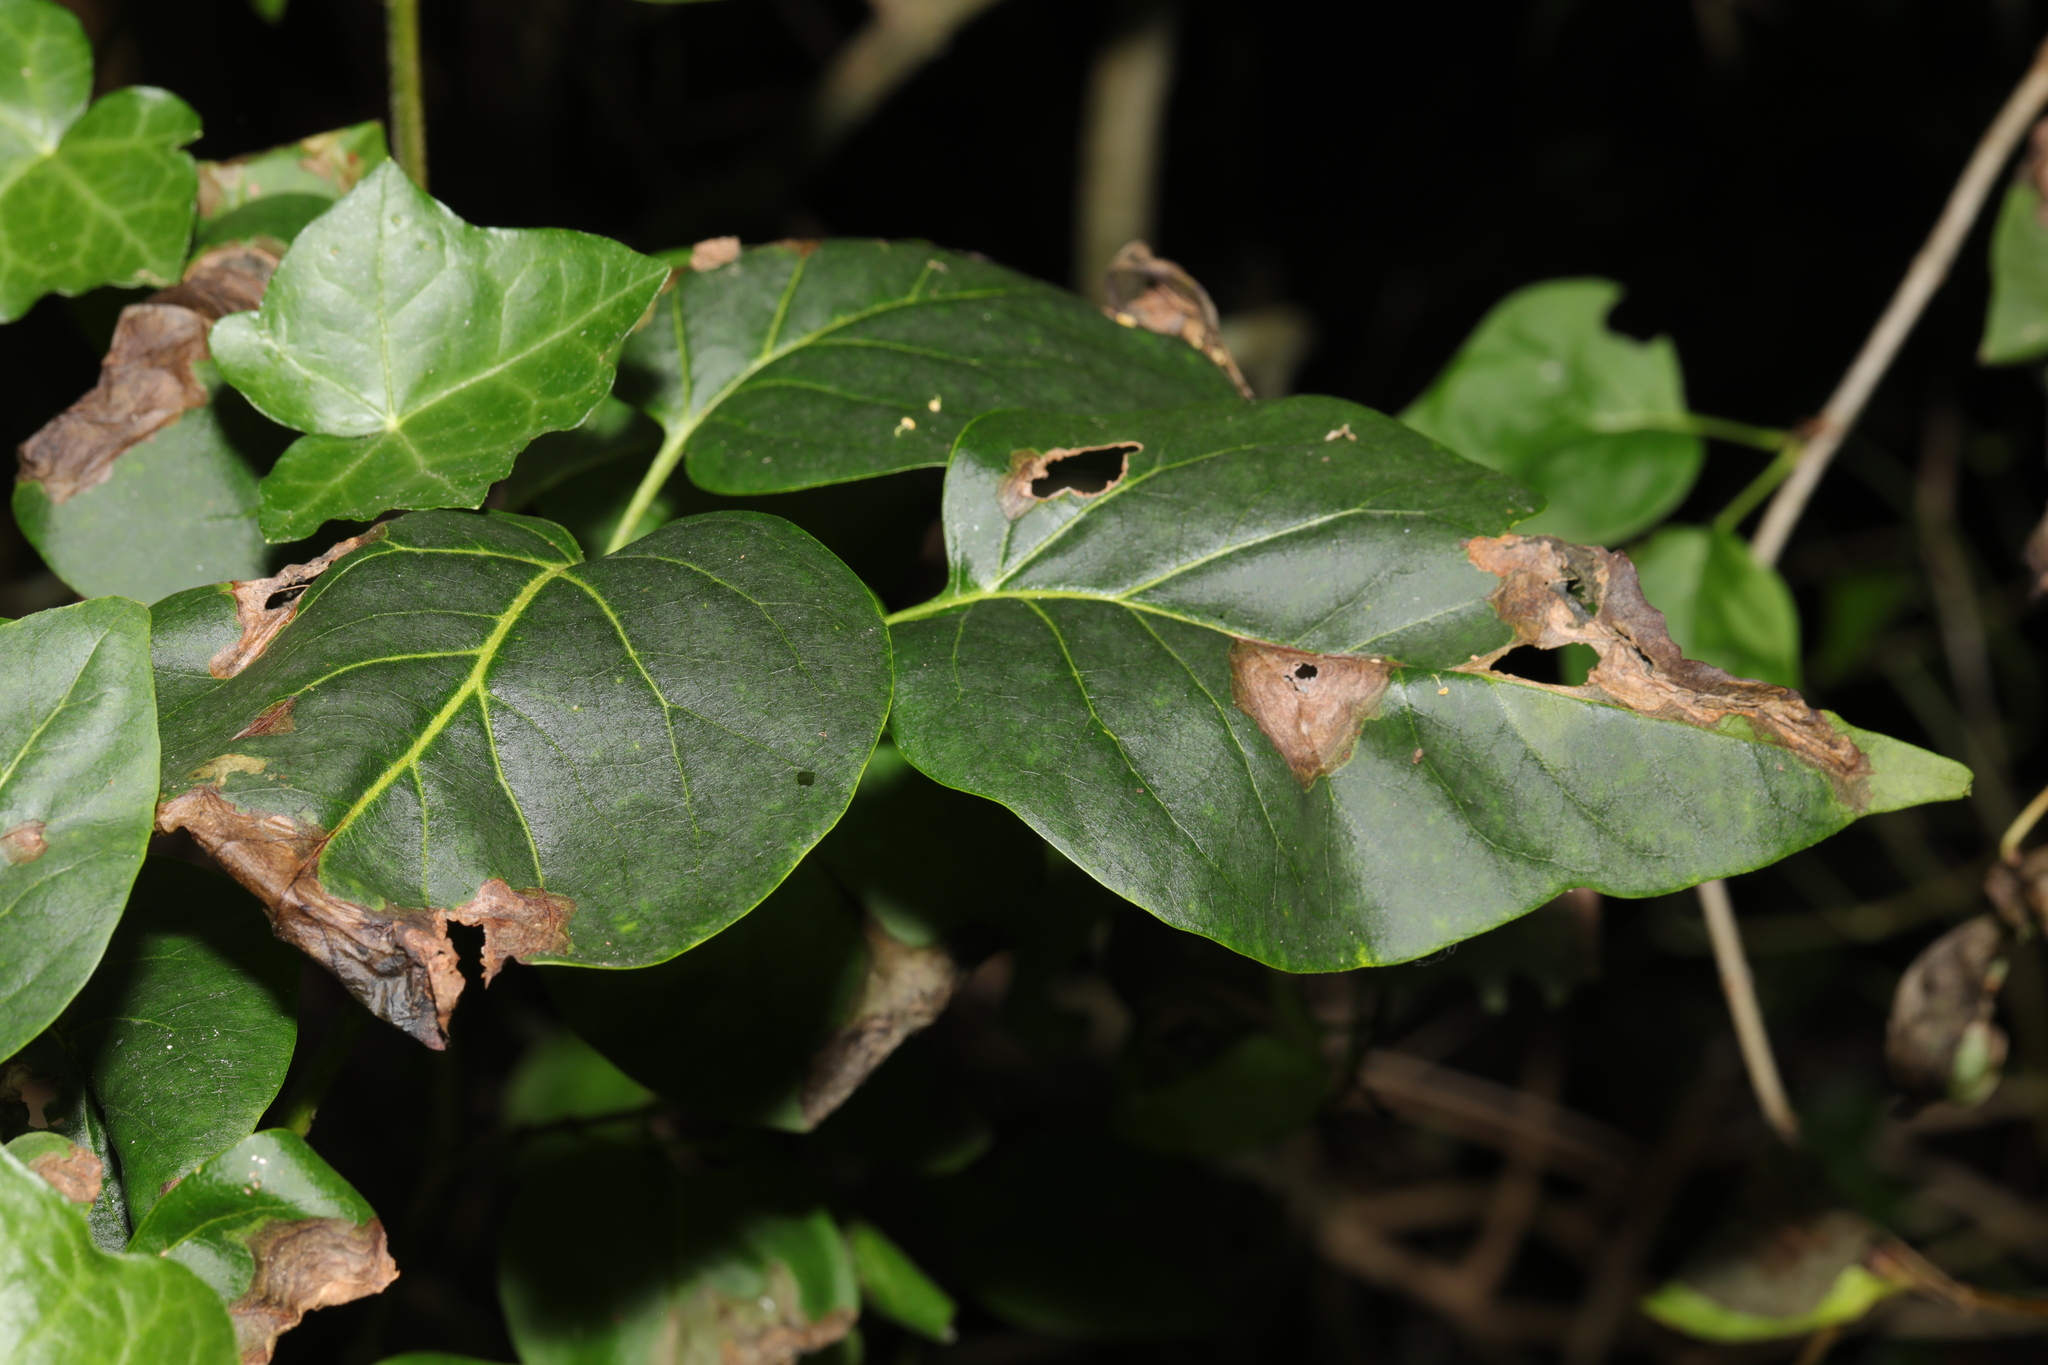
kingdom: Animalia
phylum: Arthropoda
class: Insecta
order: Lepidoptera
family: Gracillariidae
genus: Gracillaria
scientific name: Gracillaria syringella
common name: Common slender
